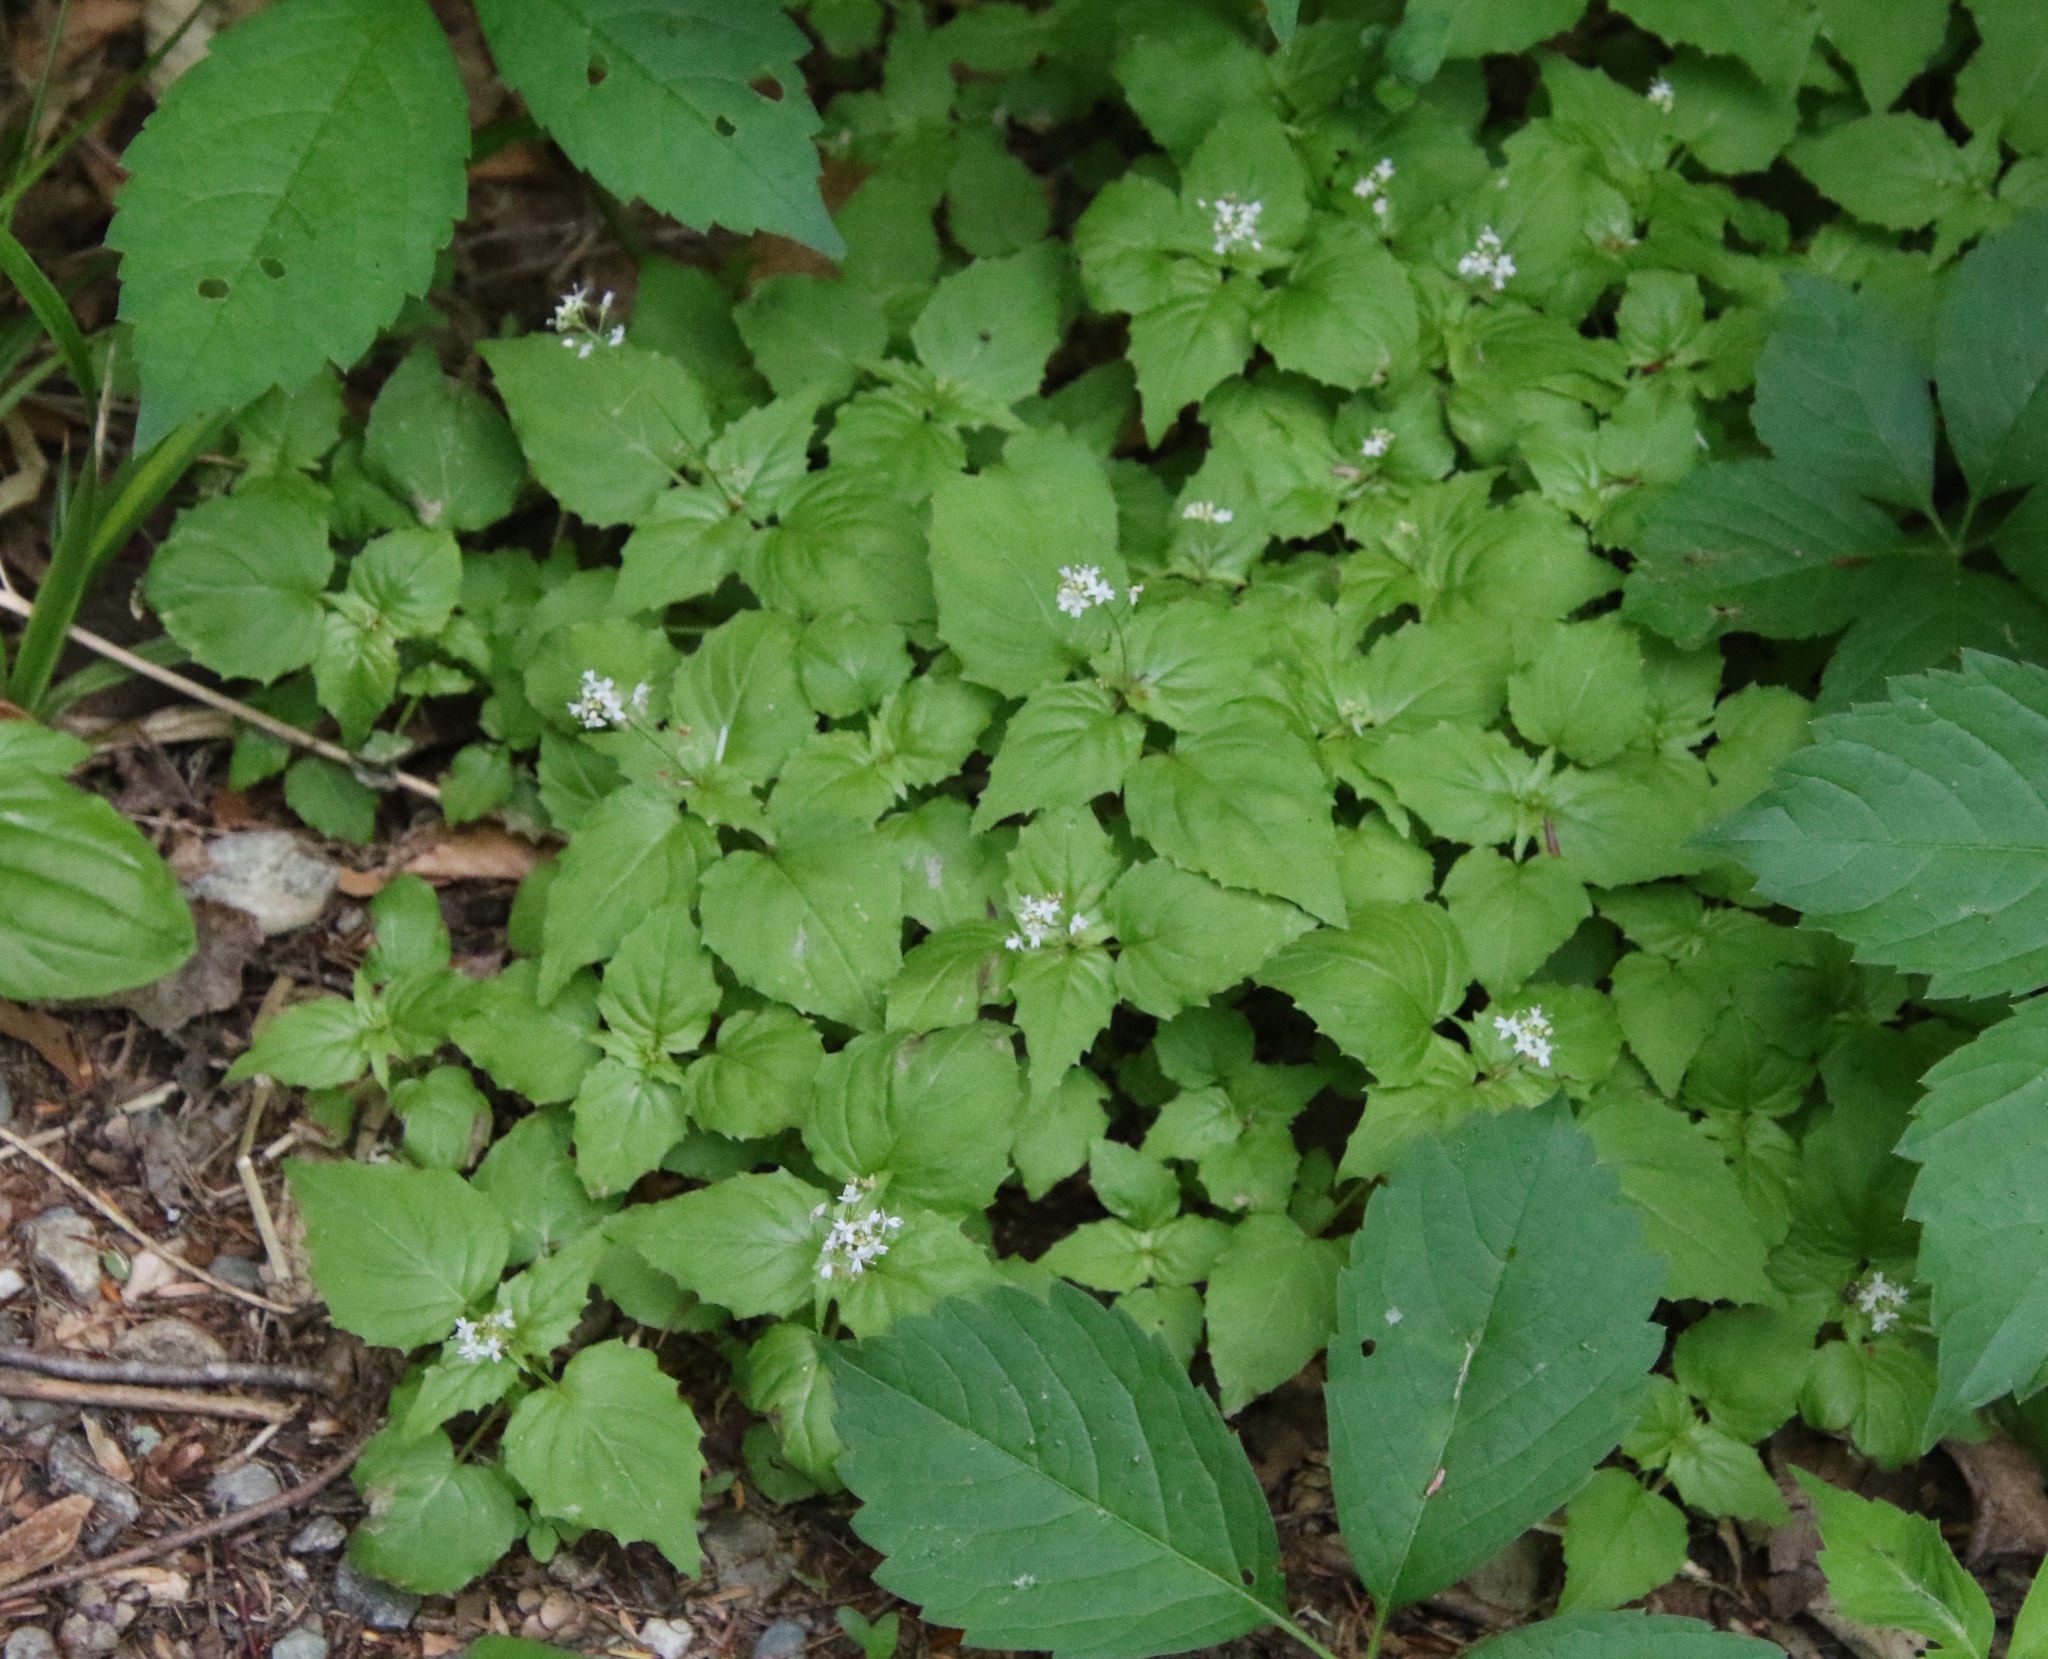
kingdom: Plantae
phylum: Tracheophyta
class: Magnoliopsida
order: Myrtales
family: Onagraceae
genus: Circaea
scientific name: Circaea alpina
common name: Alpine enchanter's-nightshade
